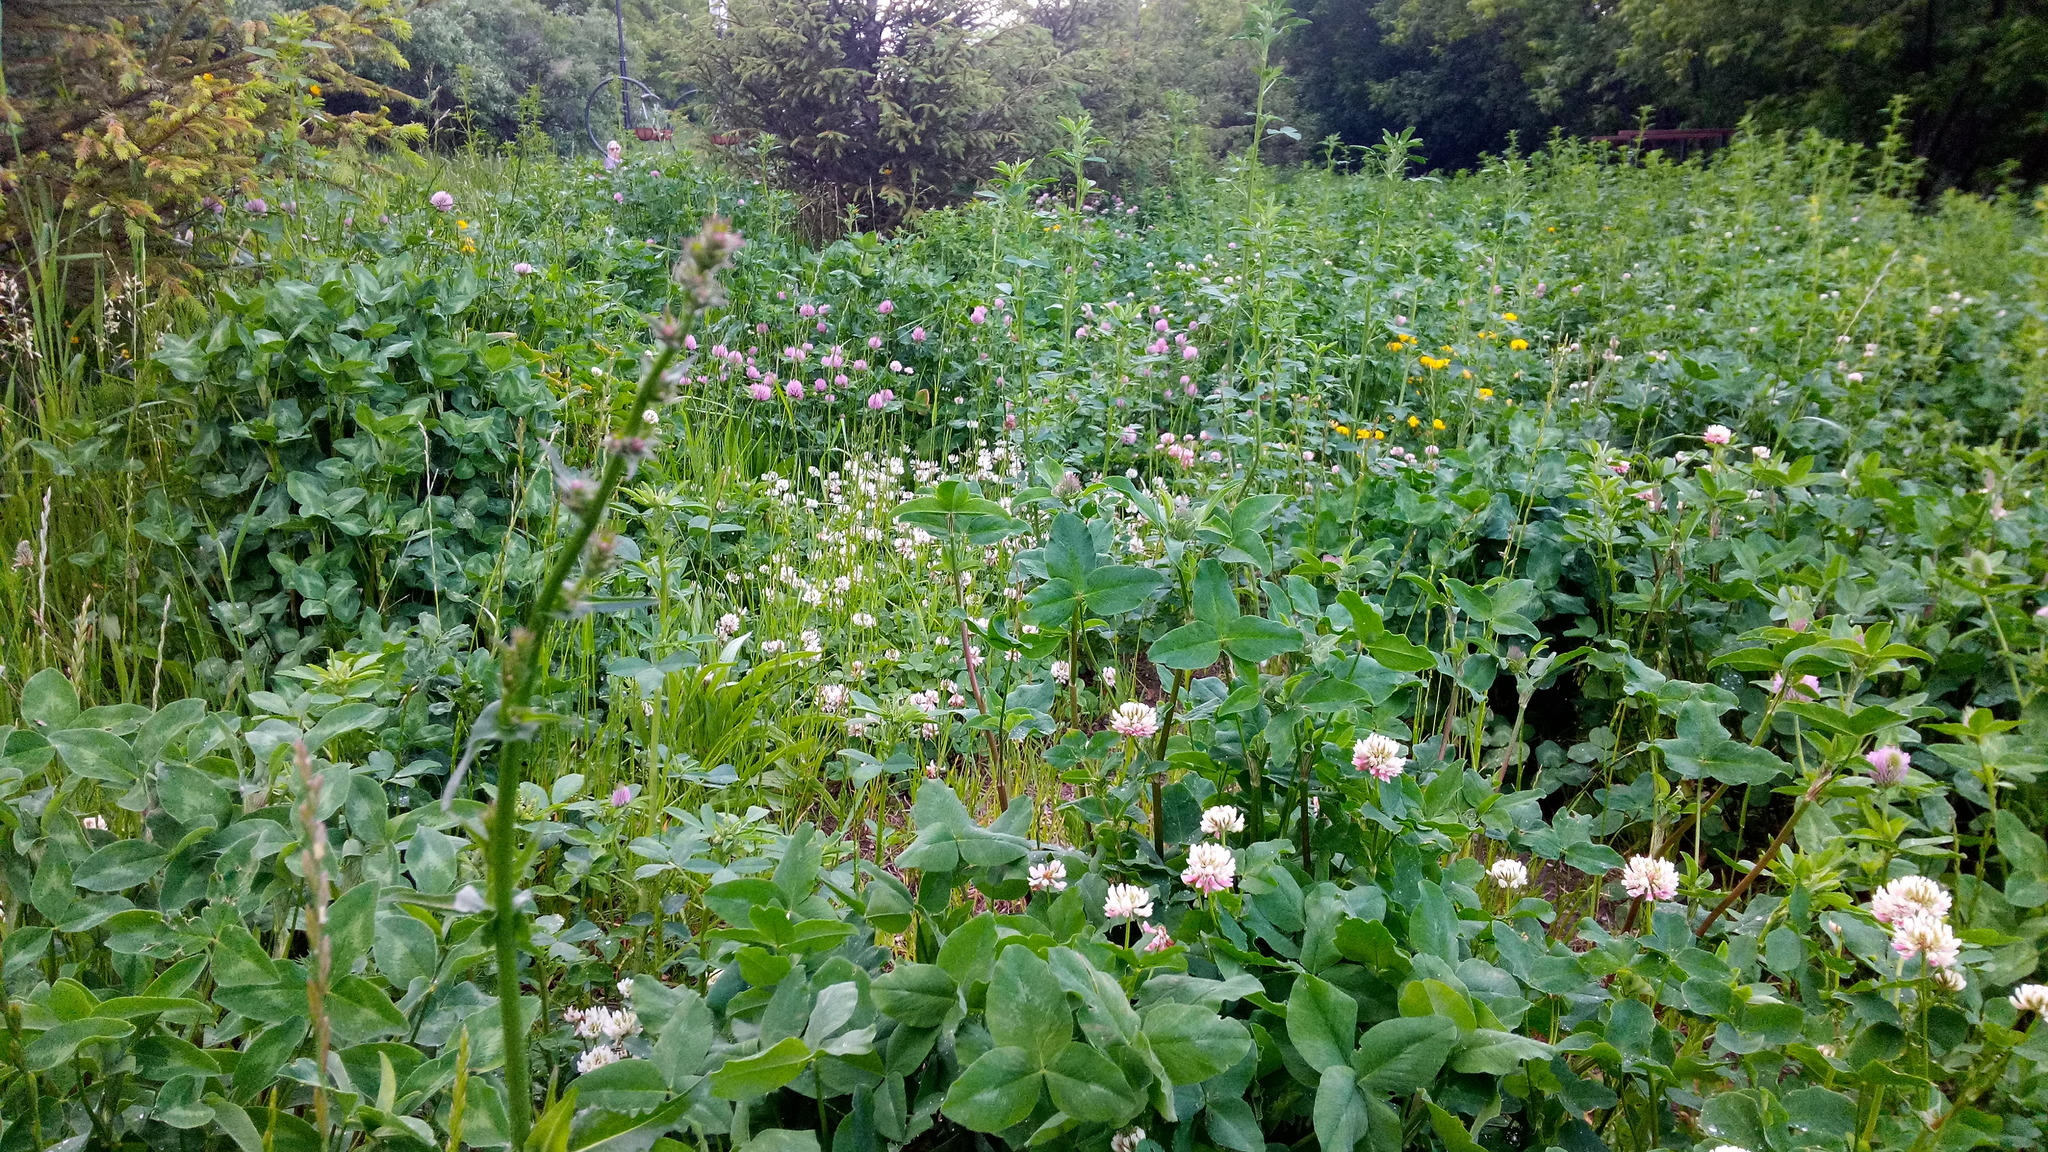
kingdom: Plantae
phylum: Tracheophyta
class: Magnoliopsida
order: Fabales
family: Fabaceae
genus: Trifolium
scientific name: Trifolium hybridum
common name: Alsike clover
